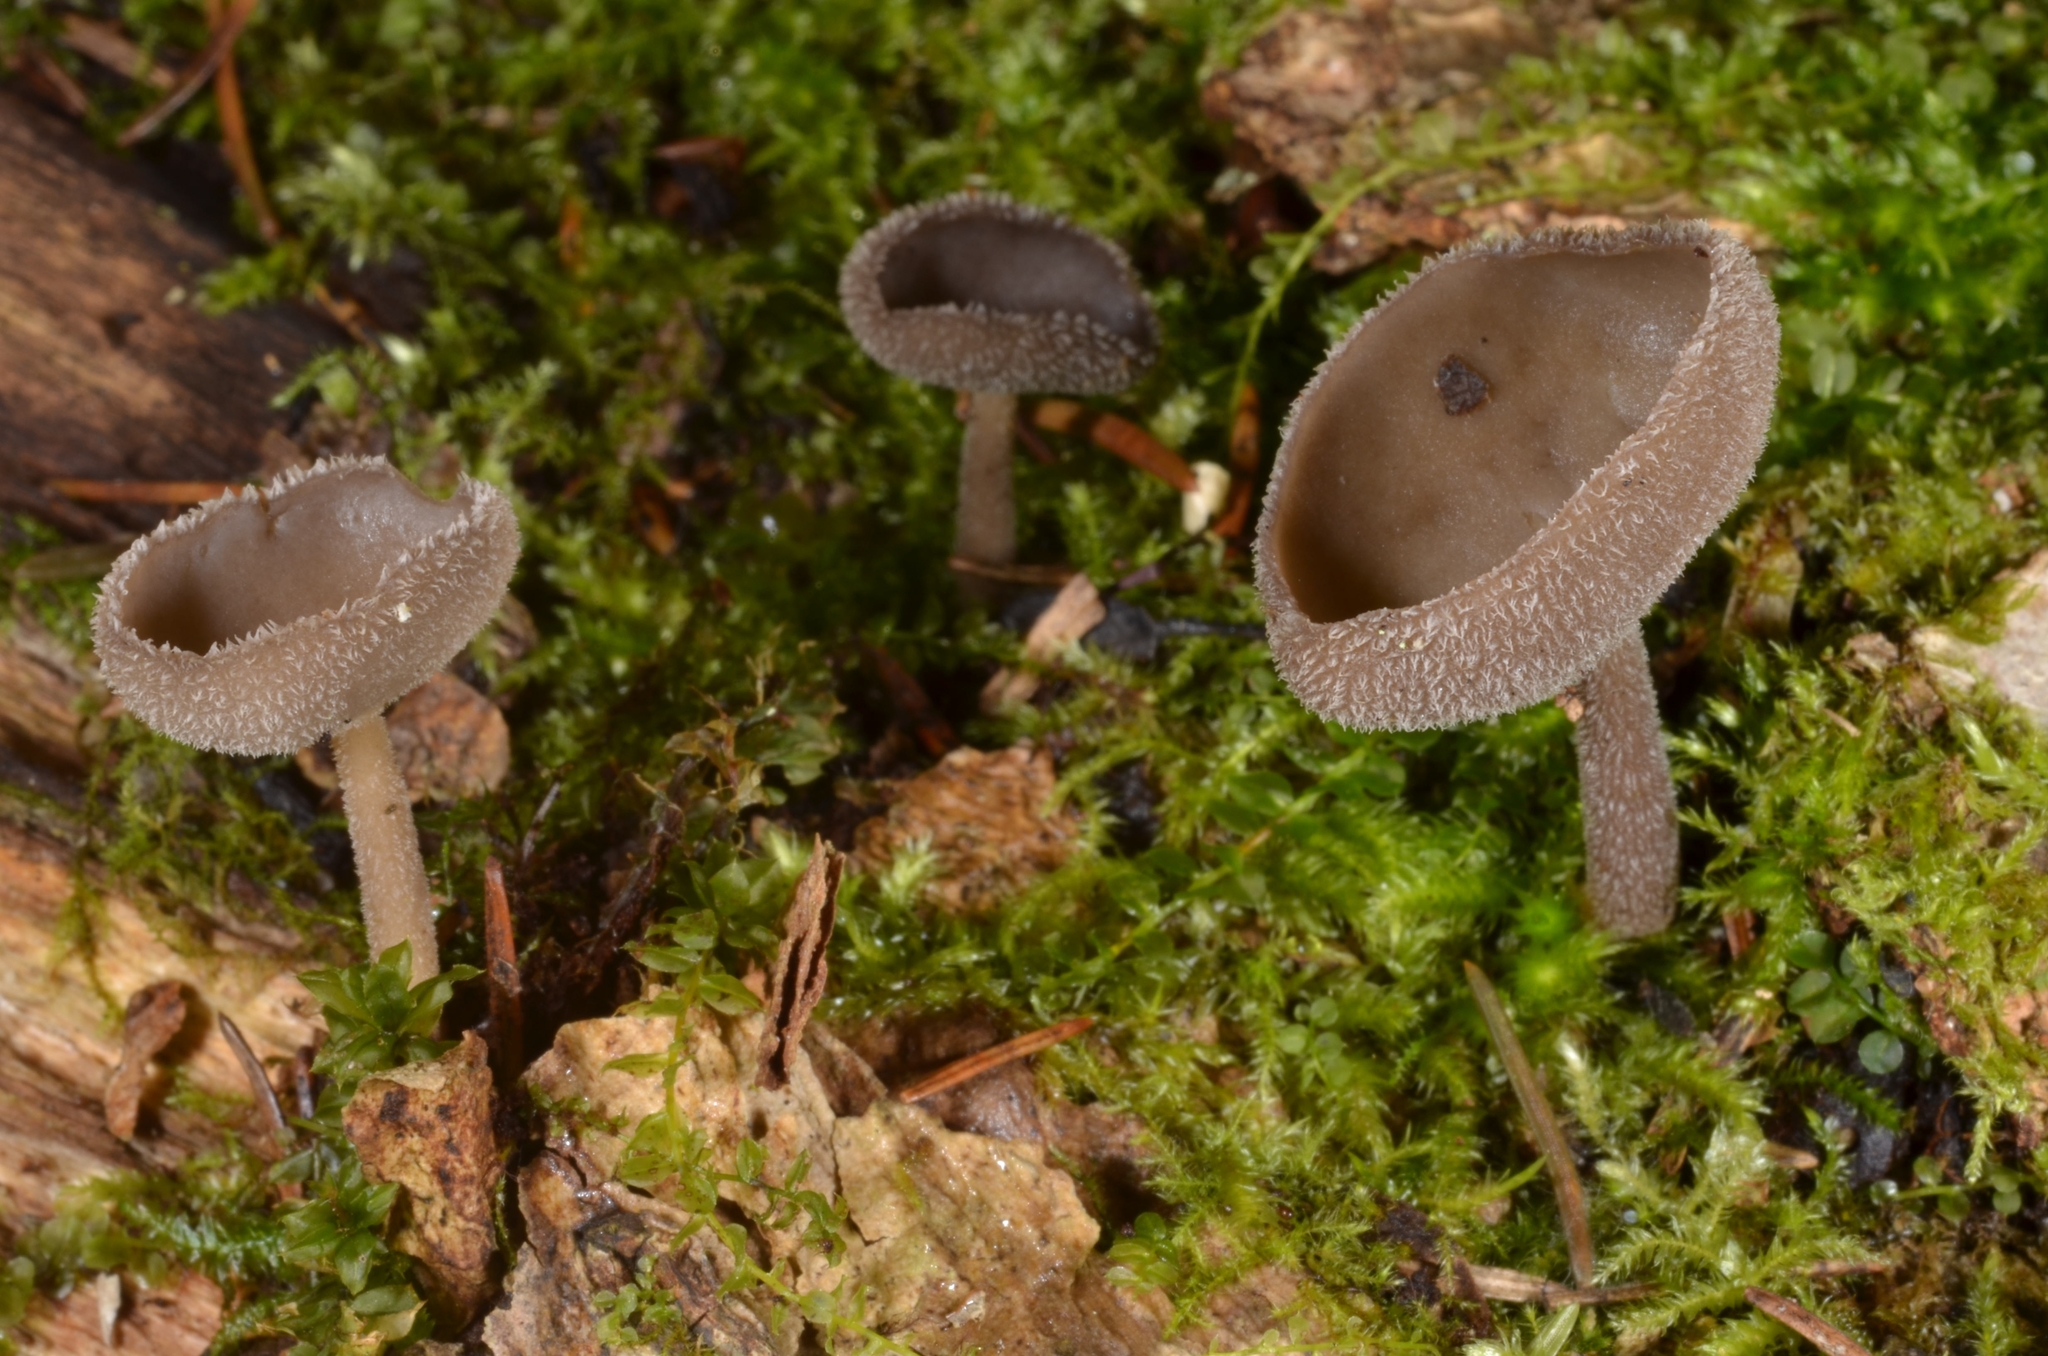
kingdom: Fungi
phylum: Ascomycota
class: Pezizomycetes
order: Pezizales
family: Helvellaceae
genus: Helvella
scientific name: Helvella macropus
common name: Felt saddle
